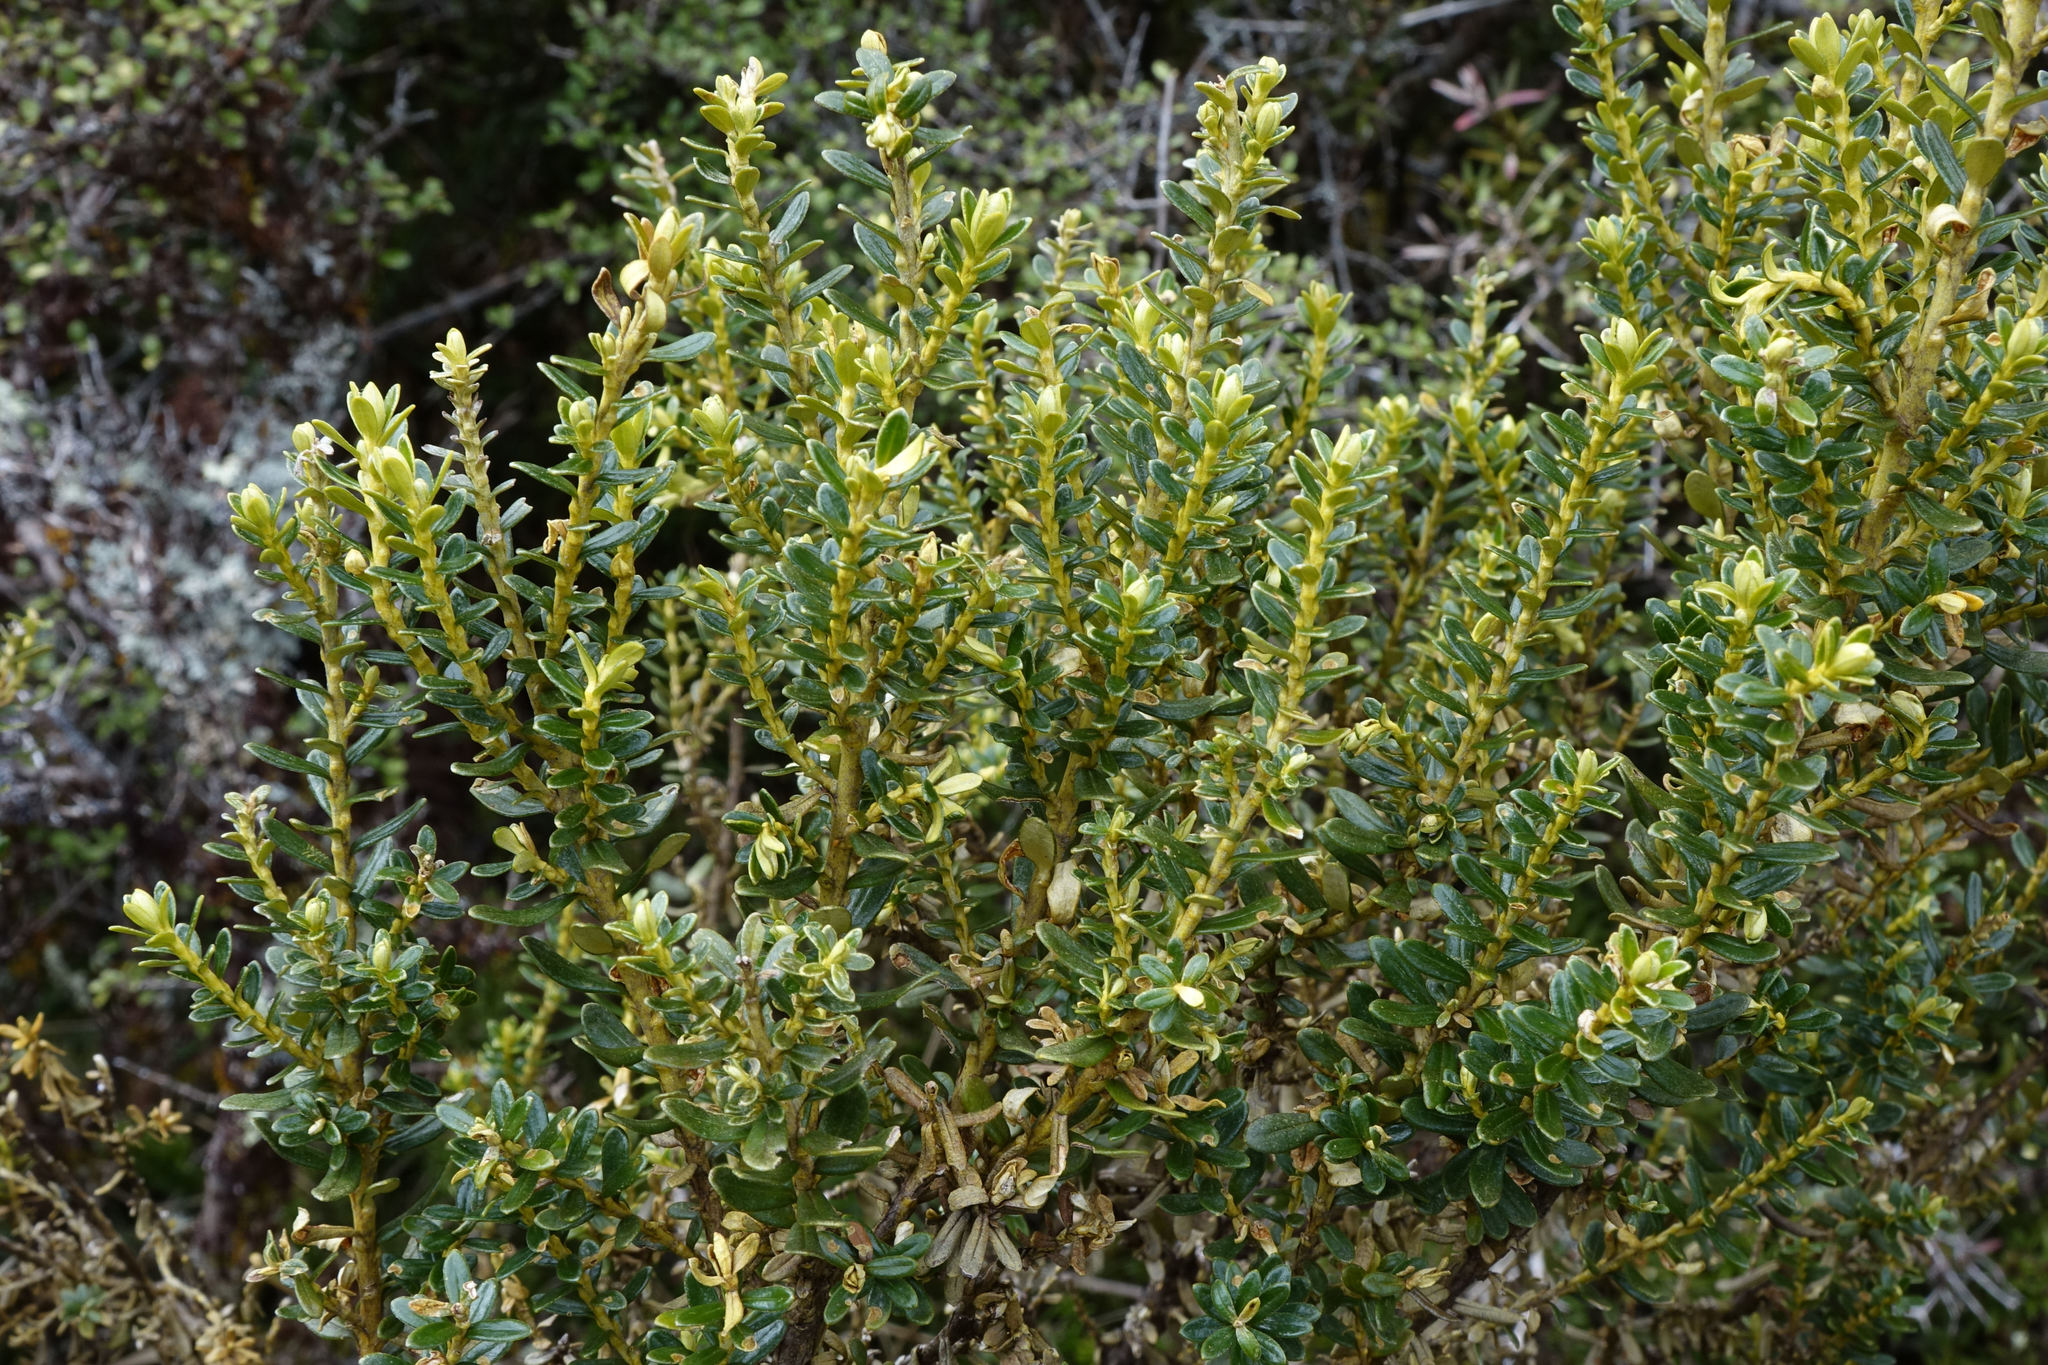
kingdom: Plantae
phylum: Tracheophyta
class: Magnoliopsida
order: Asterales
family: Asteraceae
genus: Ozothamnus
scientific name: Ozothamnus leptophyllus
